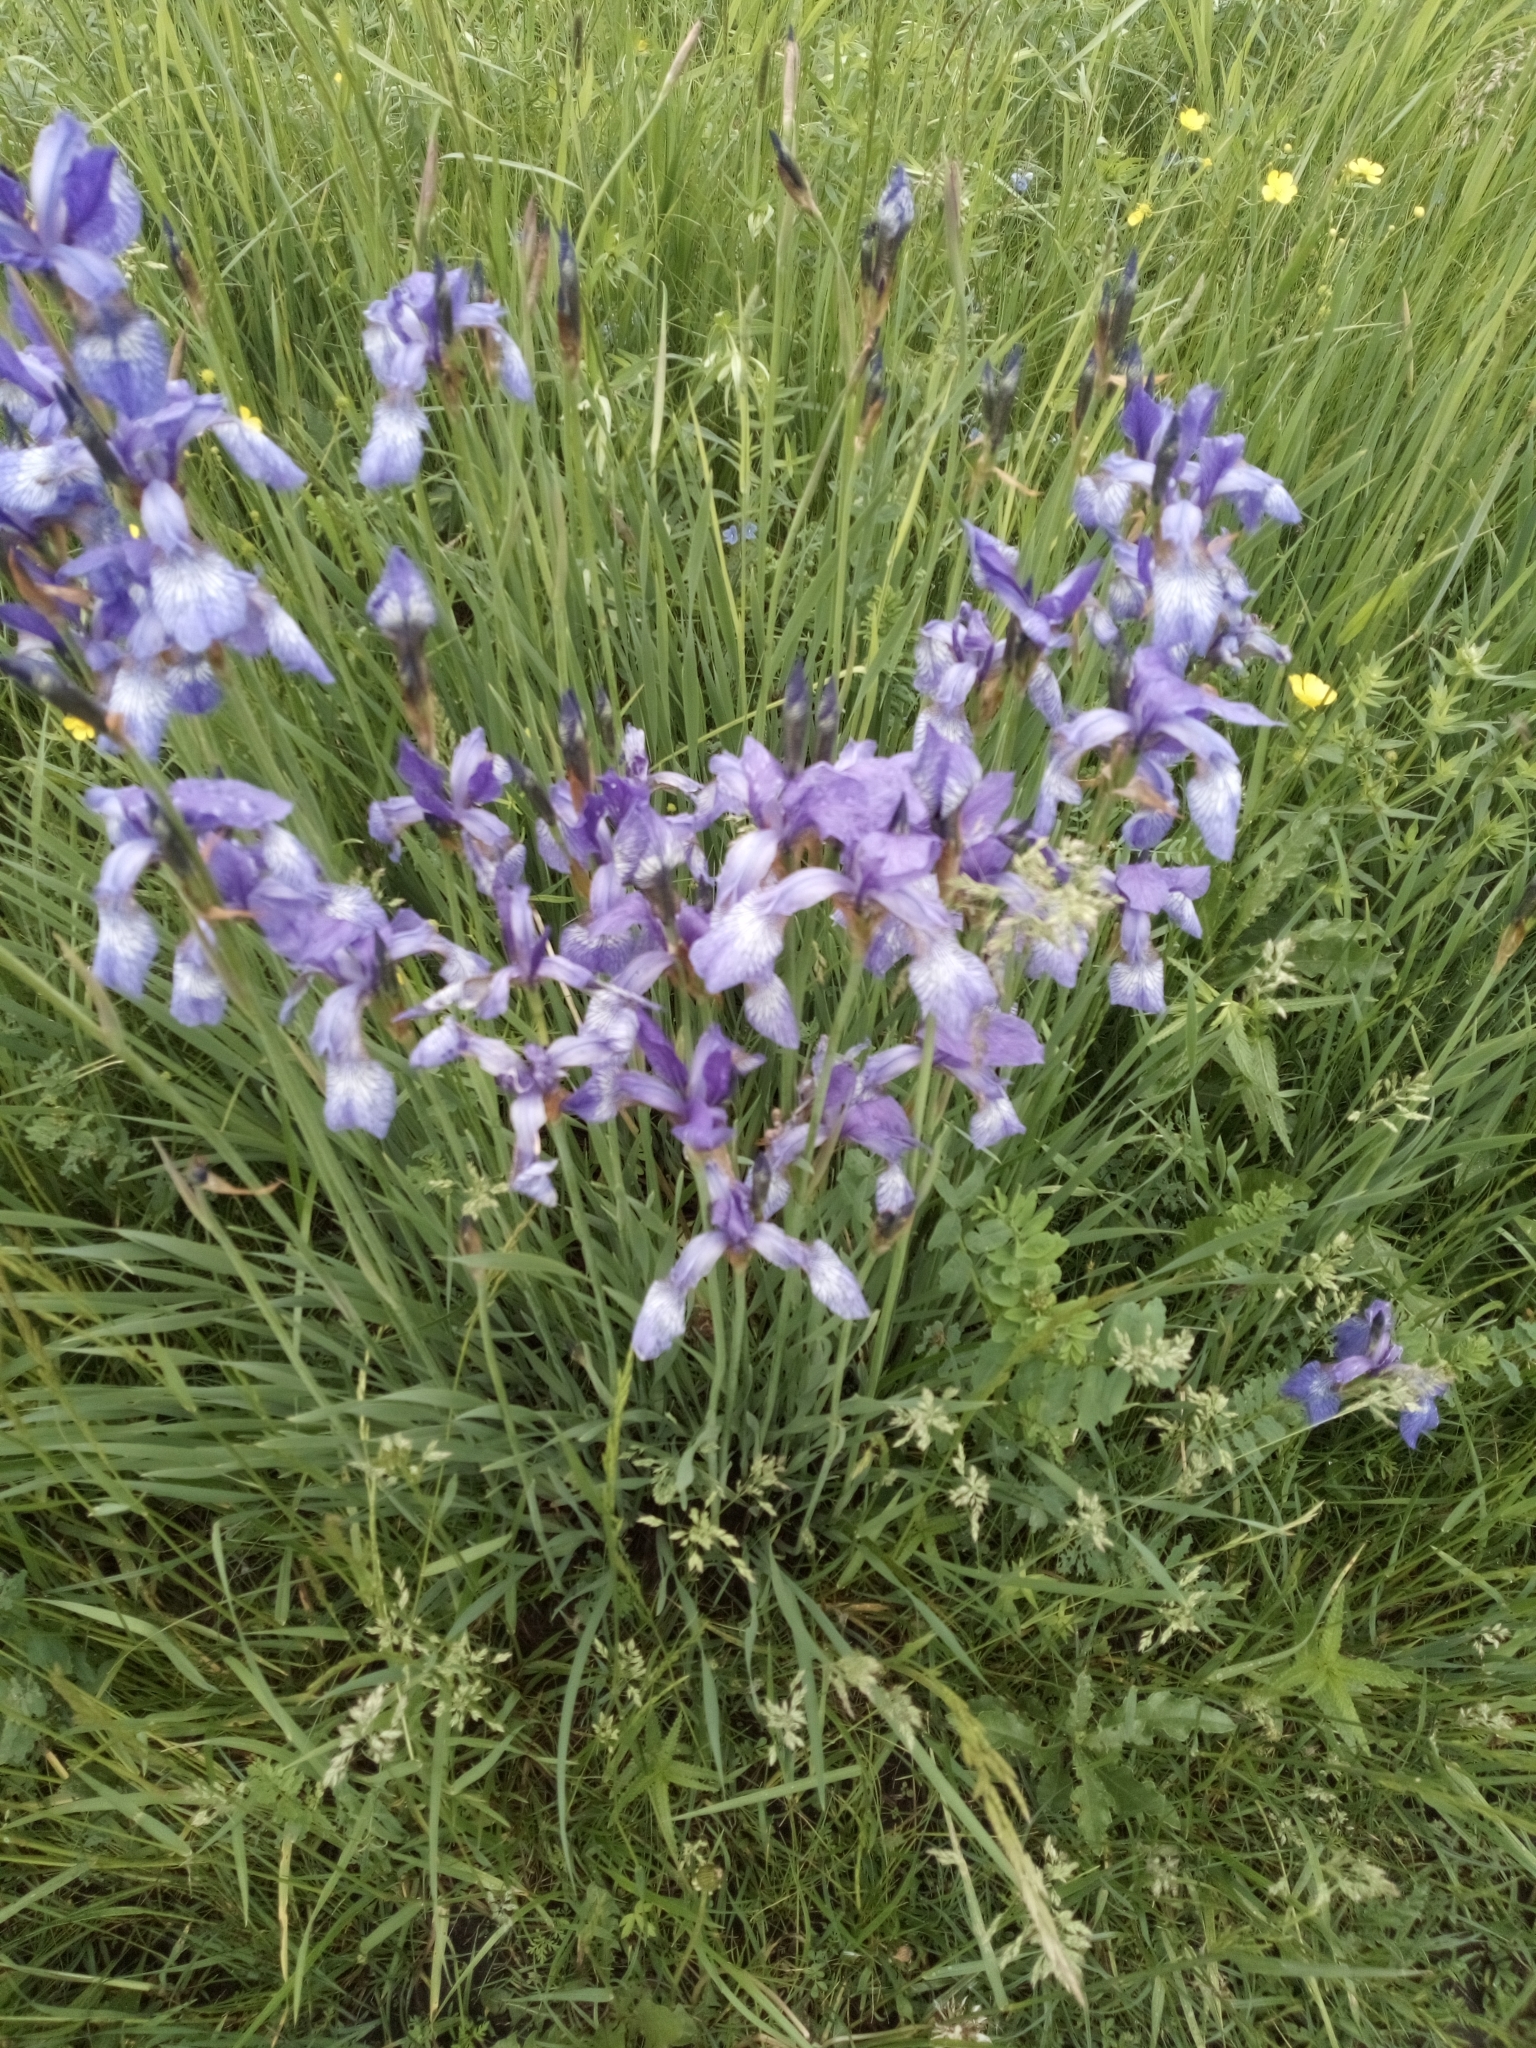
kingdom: Plantae
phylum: Tracheophyta
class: Liliopsida
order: Asparagales
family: Iridaceae
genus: Iris
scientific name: Iris sibirica
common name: Siberian iris
